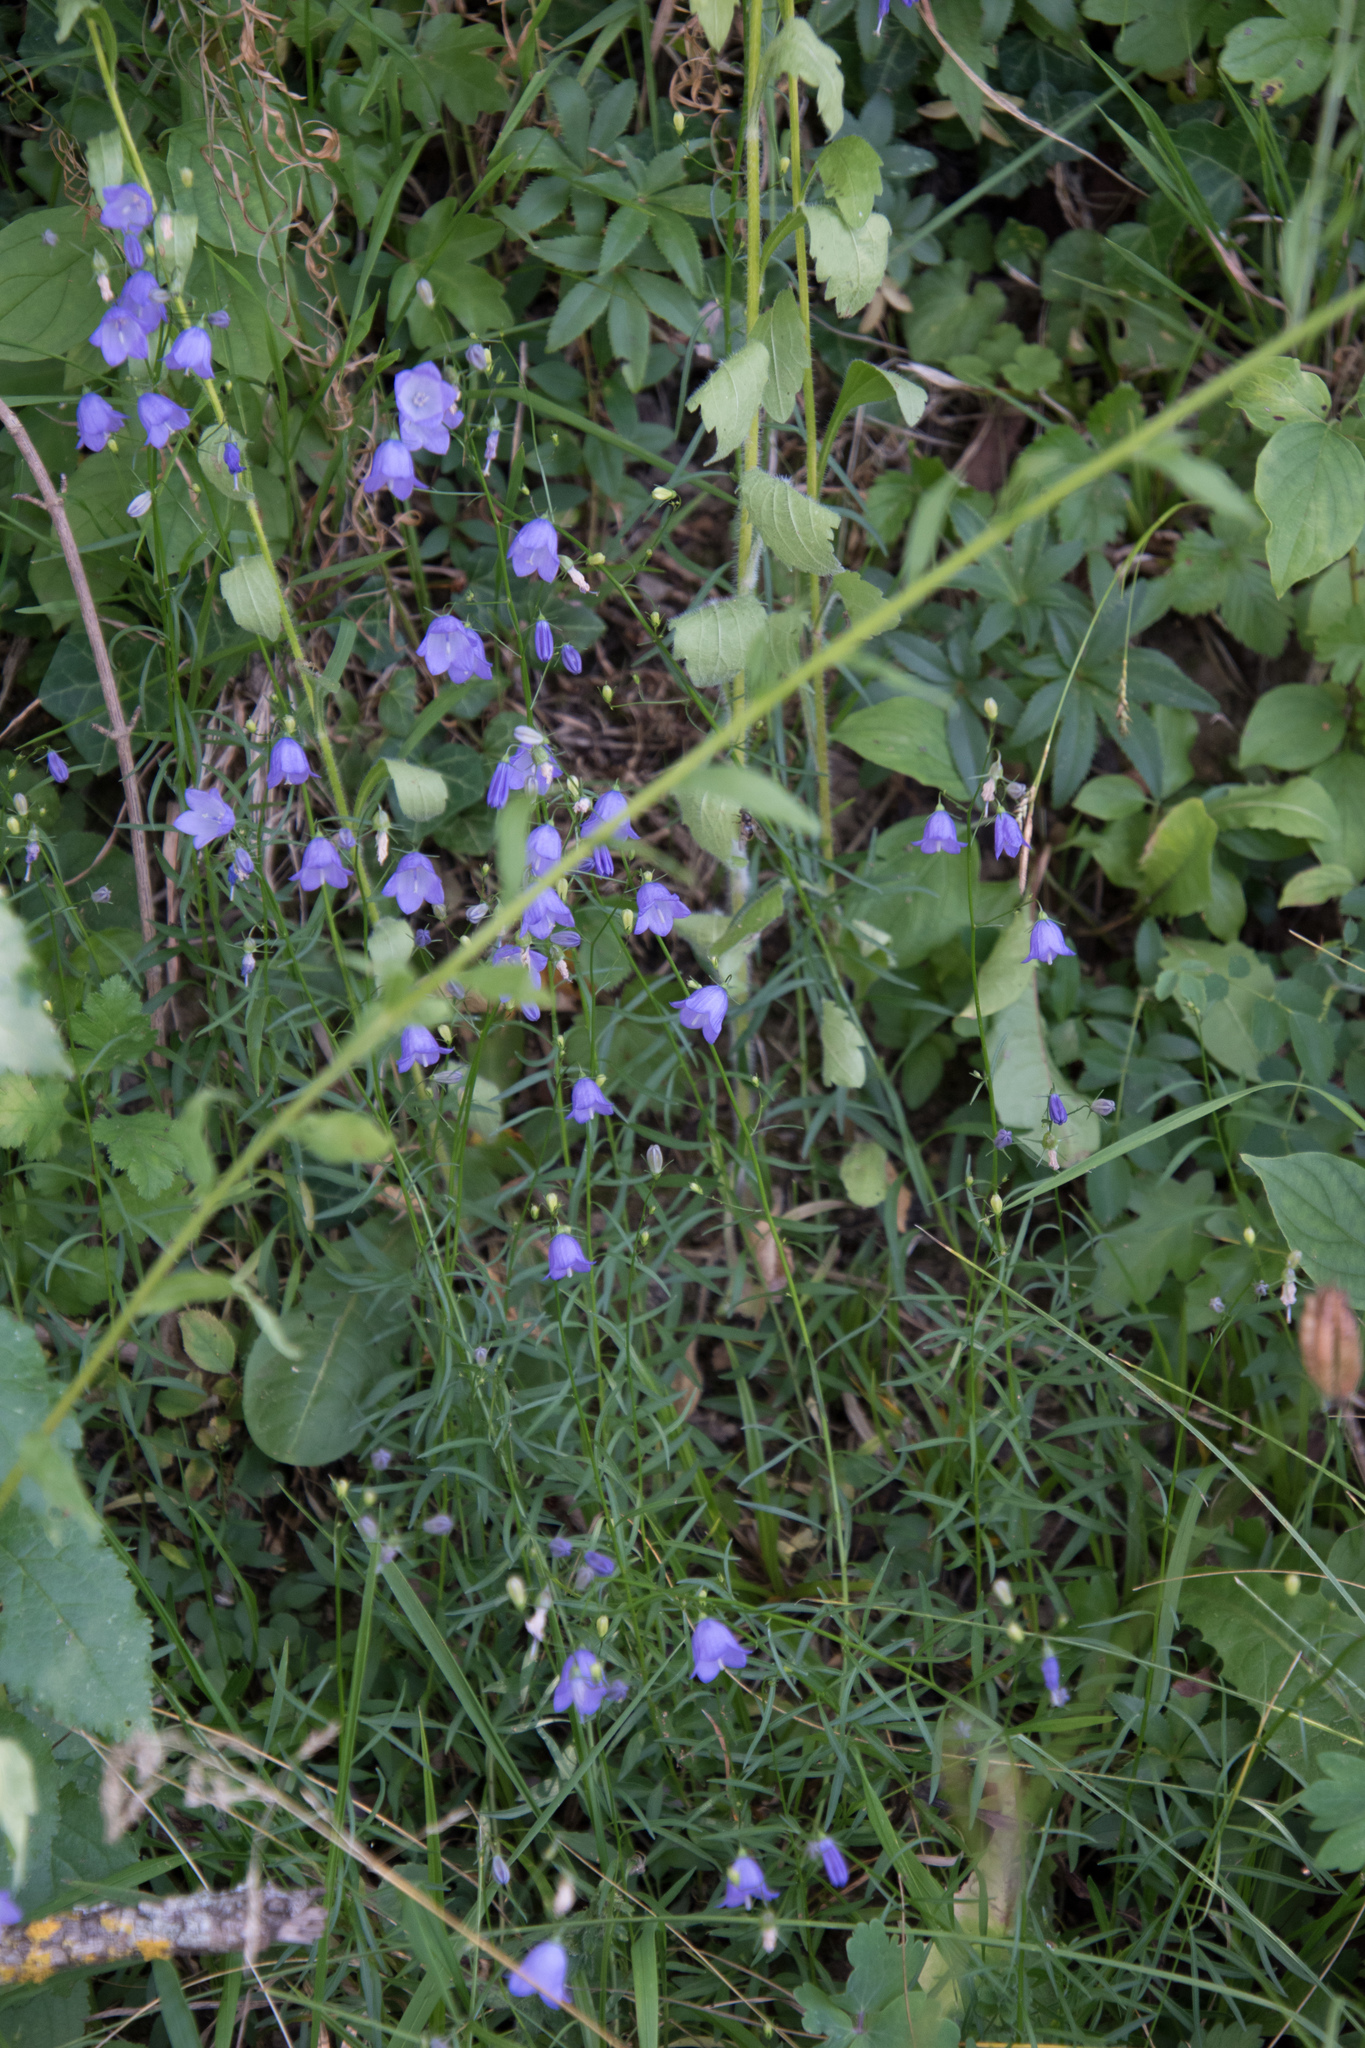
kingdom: Plantae
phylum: Tracheophyta
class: Magnoliopsida
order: Asterales
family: Campanulaceae
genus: Campanula
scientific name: Campanula rotundifolia
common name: Harebell
